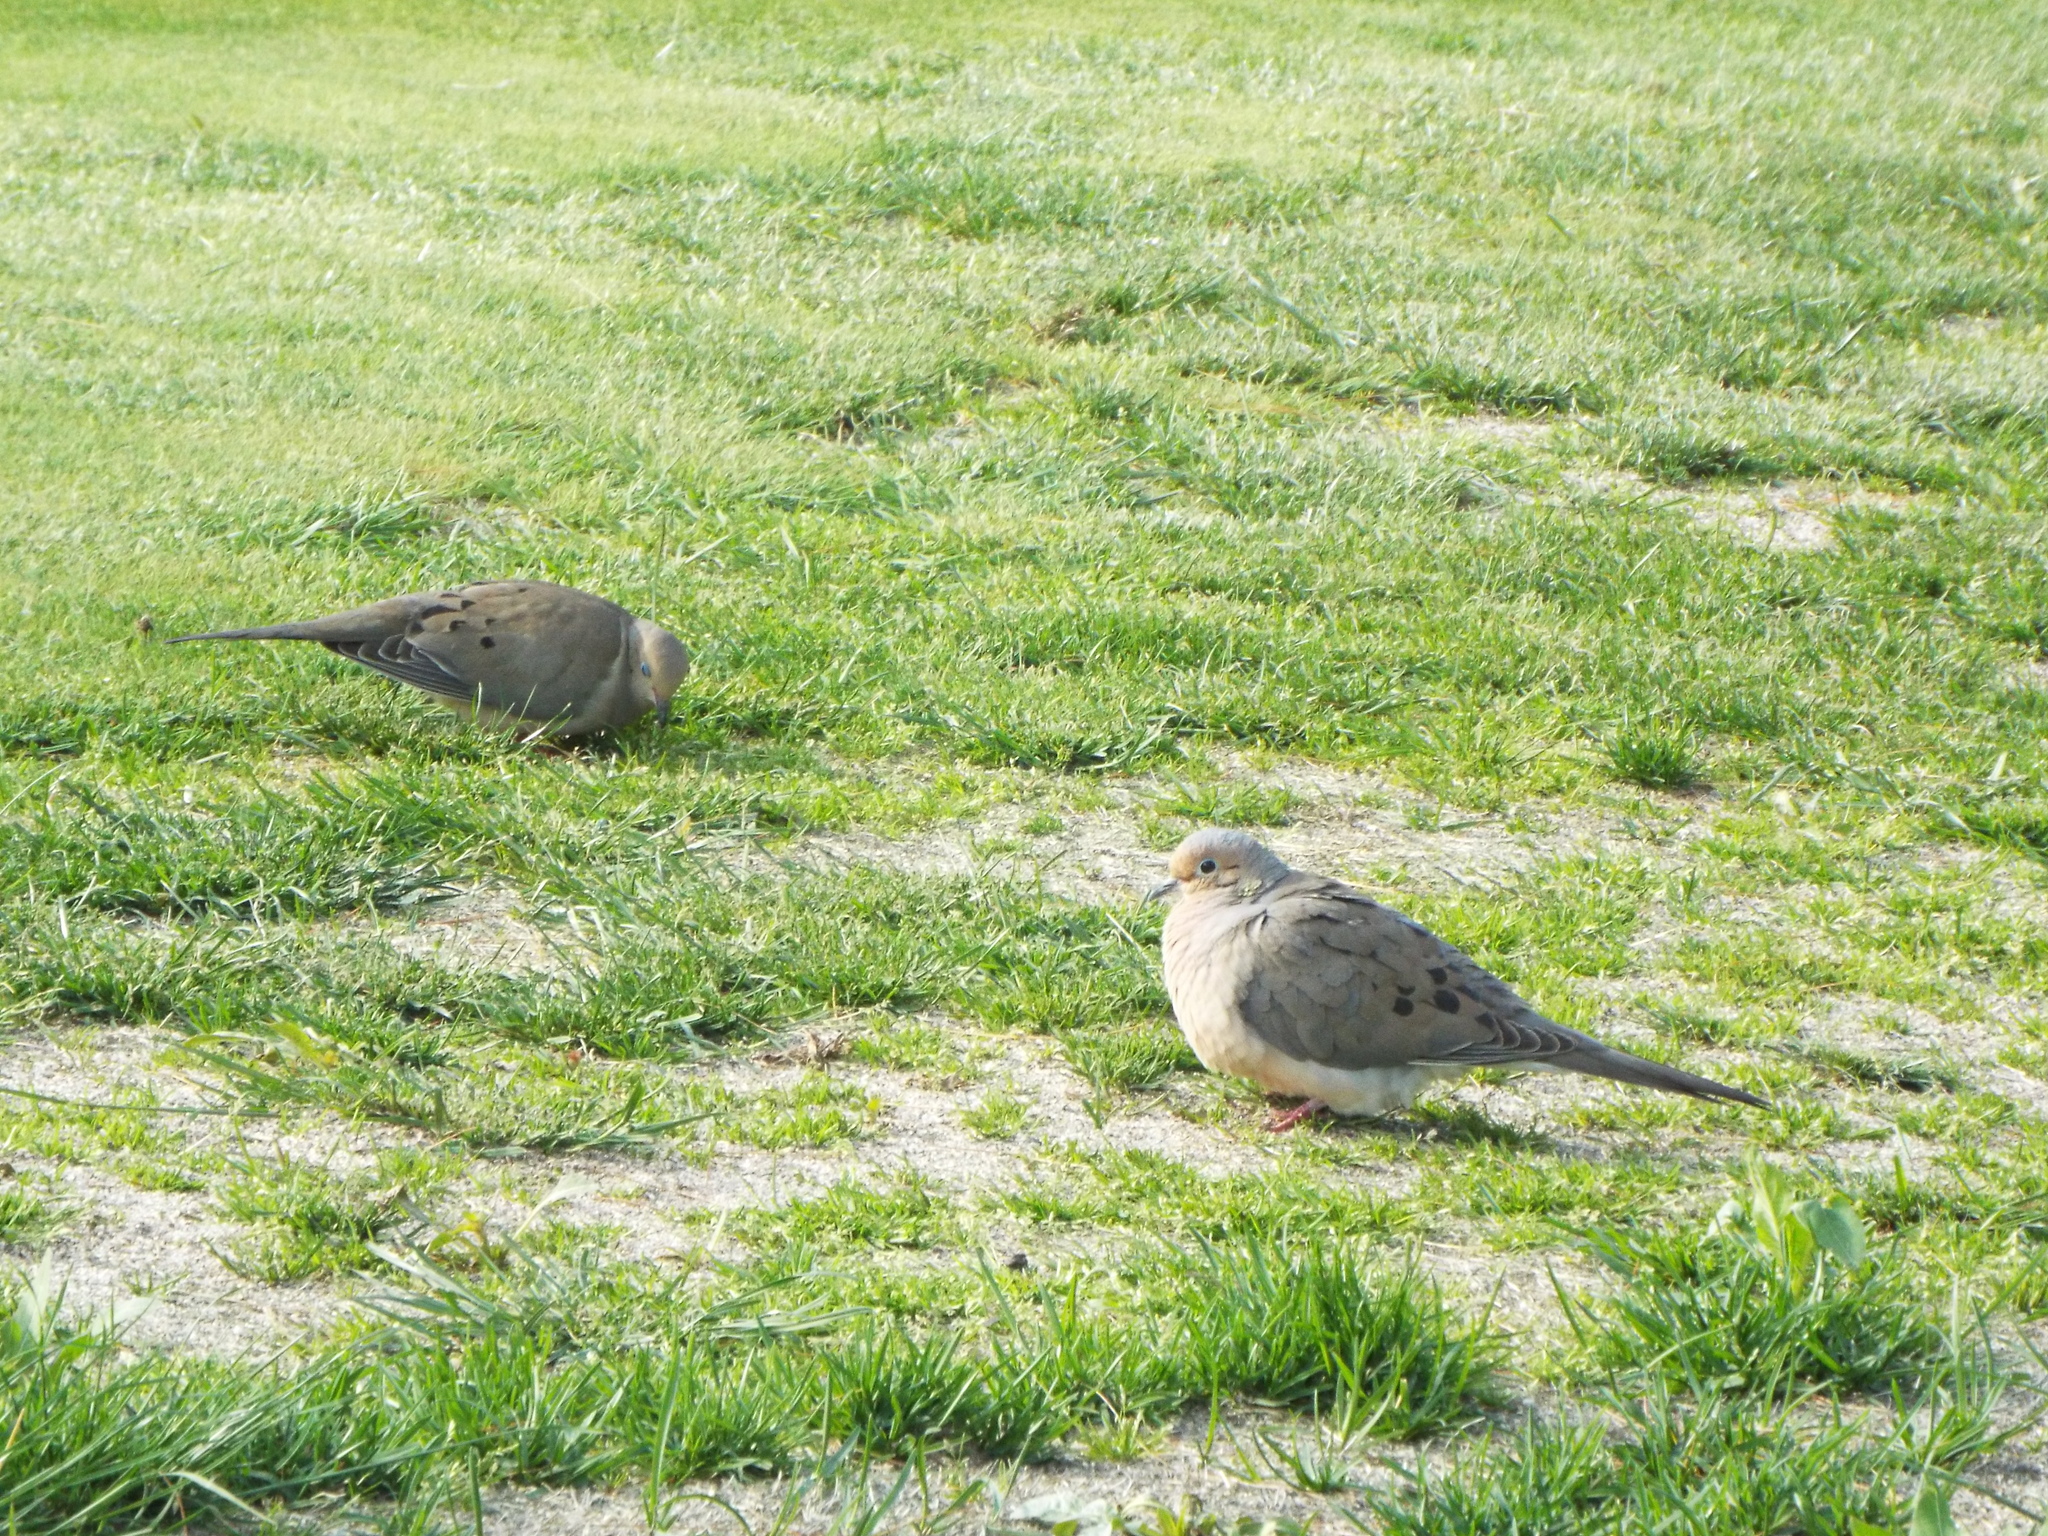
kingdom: Animalia
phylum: Chordata
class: Aves
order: Columbiformes
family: Columbidae
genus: Zenaida
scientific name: Zenaida macroura
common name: Mourning dove
